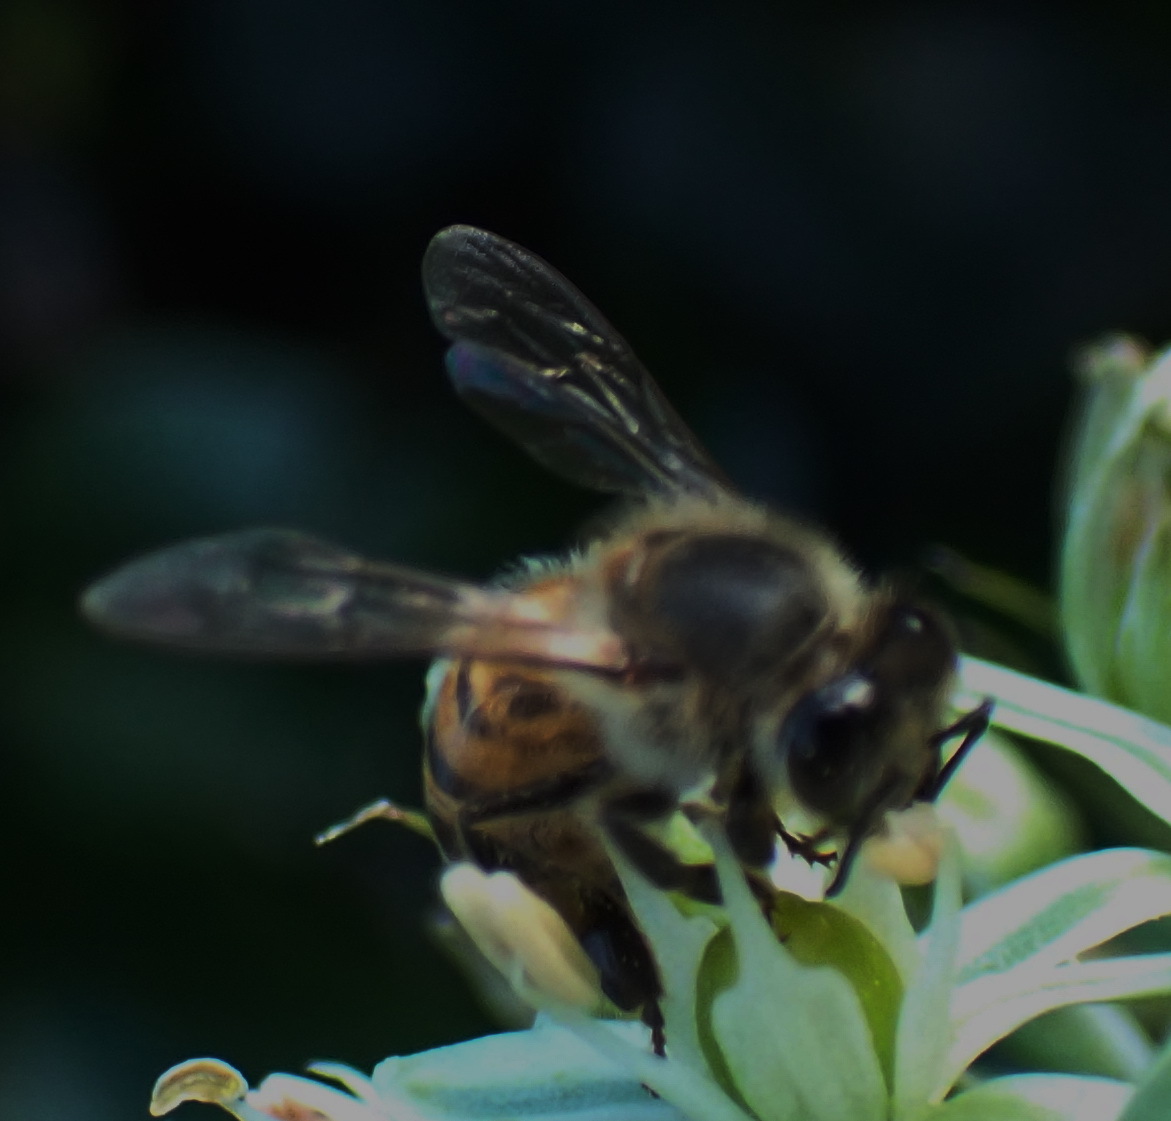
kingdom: Animalia
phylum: Arthropoda
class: Insecta
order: Hymenoptera
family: Apidae
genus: Apis
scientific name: Apis mellifera
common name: Honey bee
